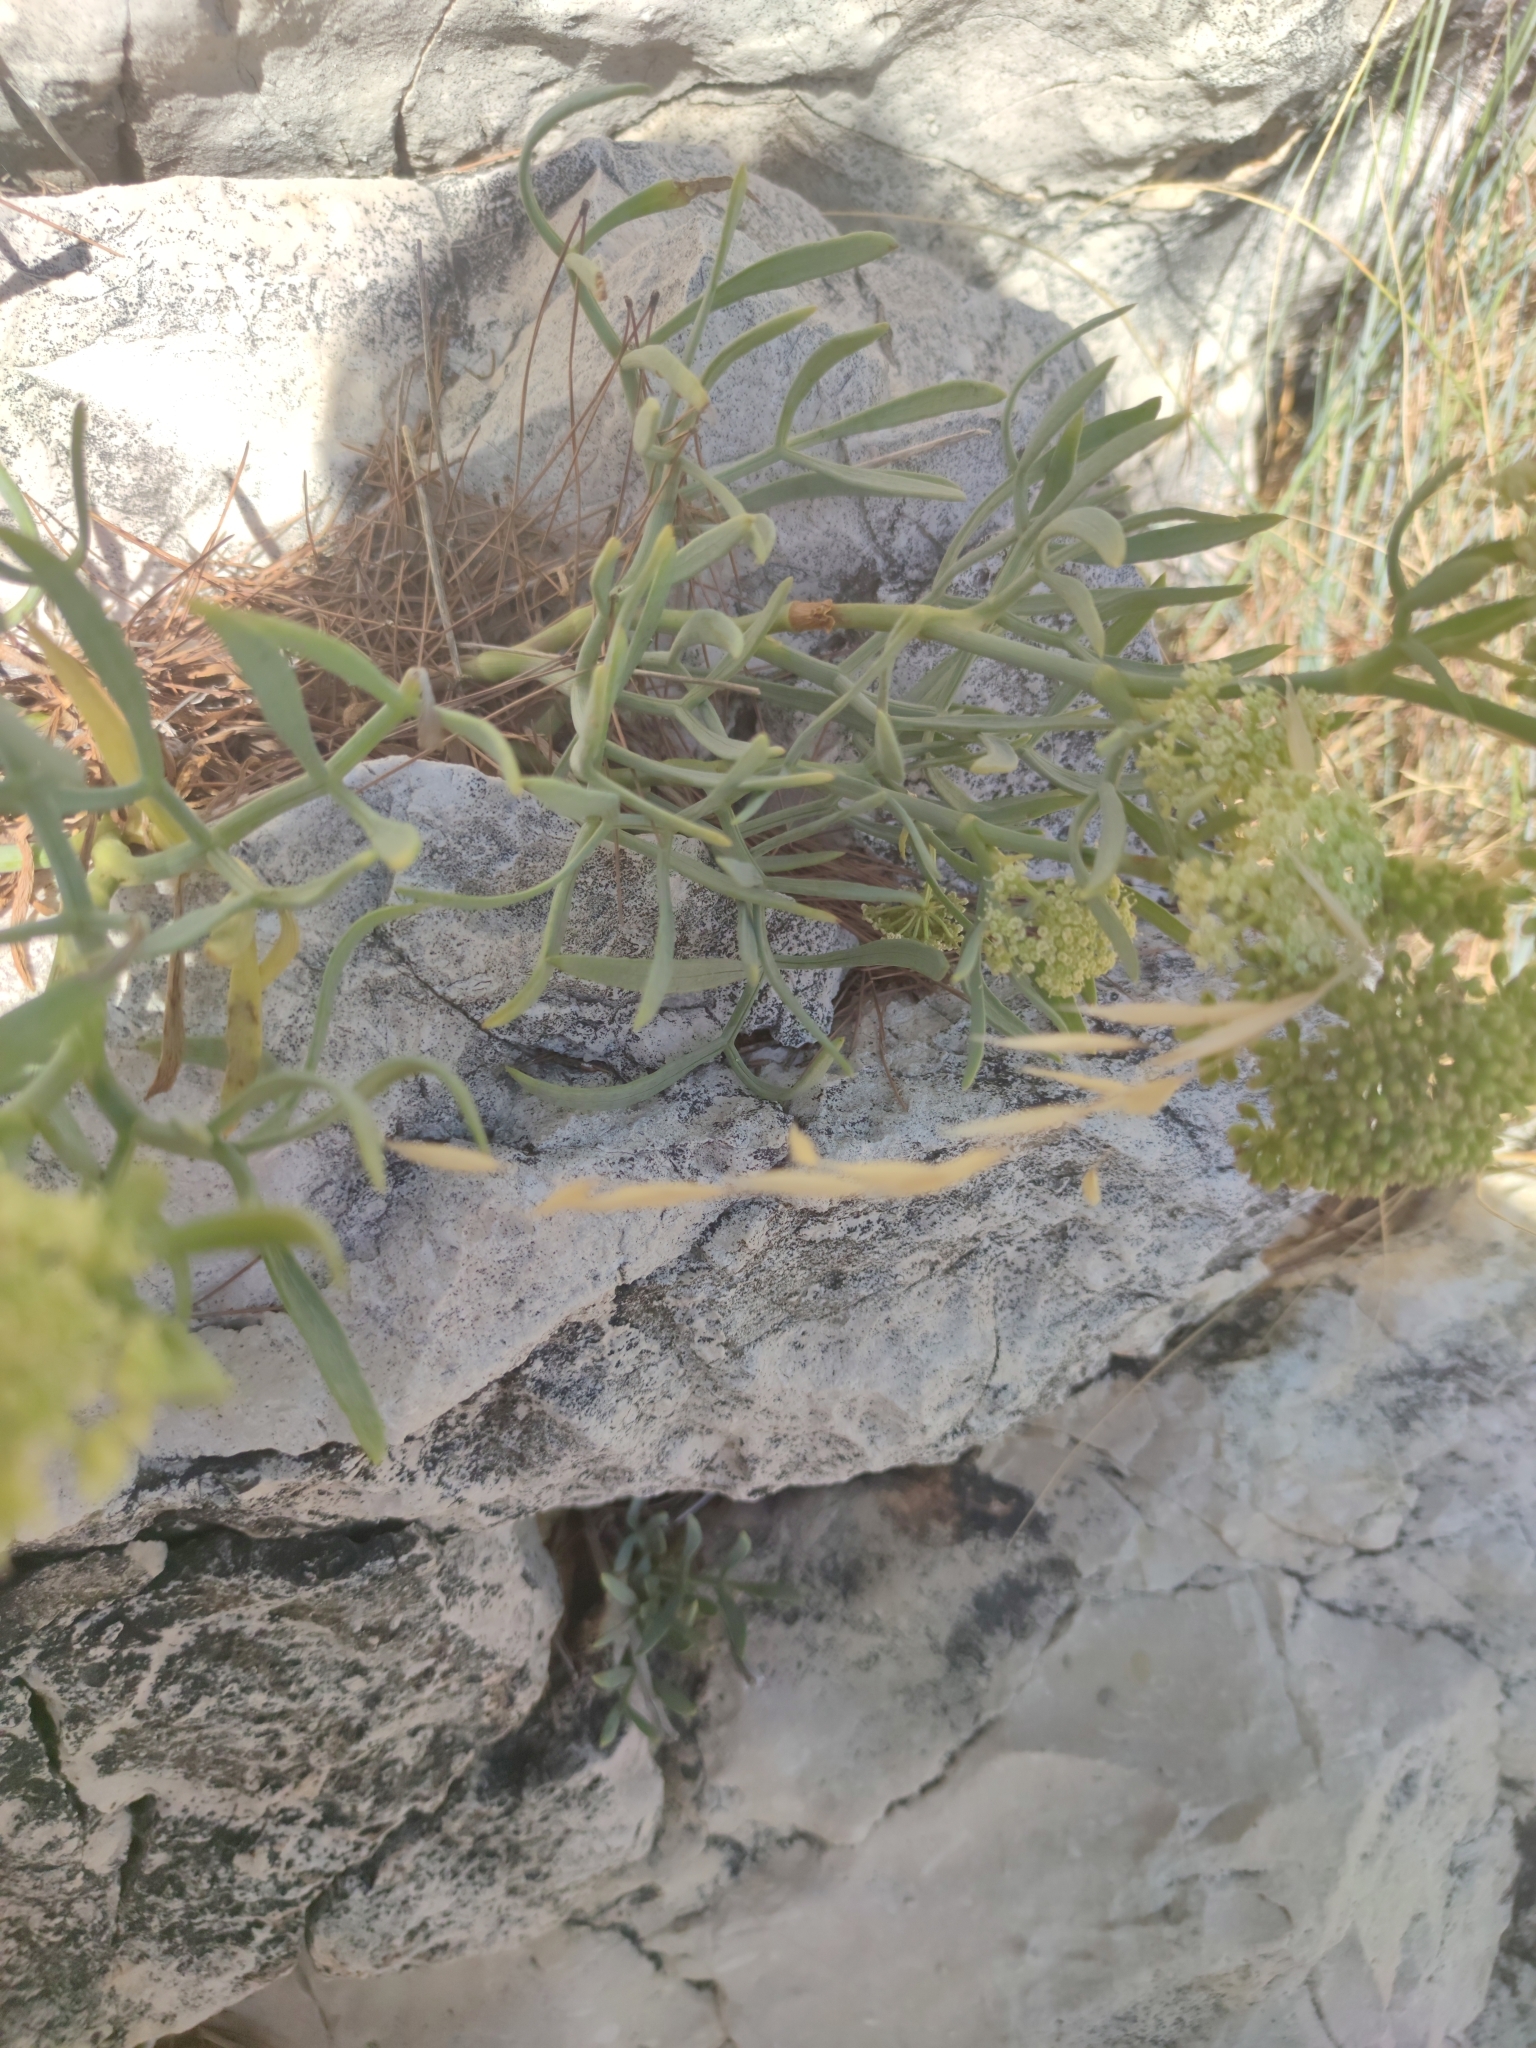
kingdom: Plantae
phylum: Tracheophyta
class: Magnoliopsida
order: Apiales
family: Apiaceae
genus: Crithmum
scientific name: Crithmum maritimum
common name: Rock samphire
